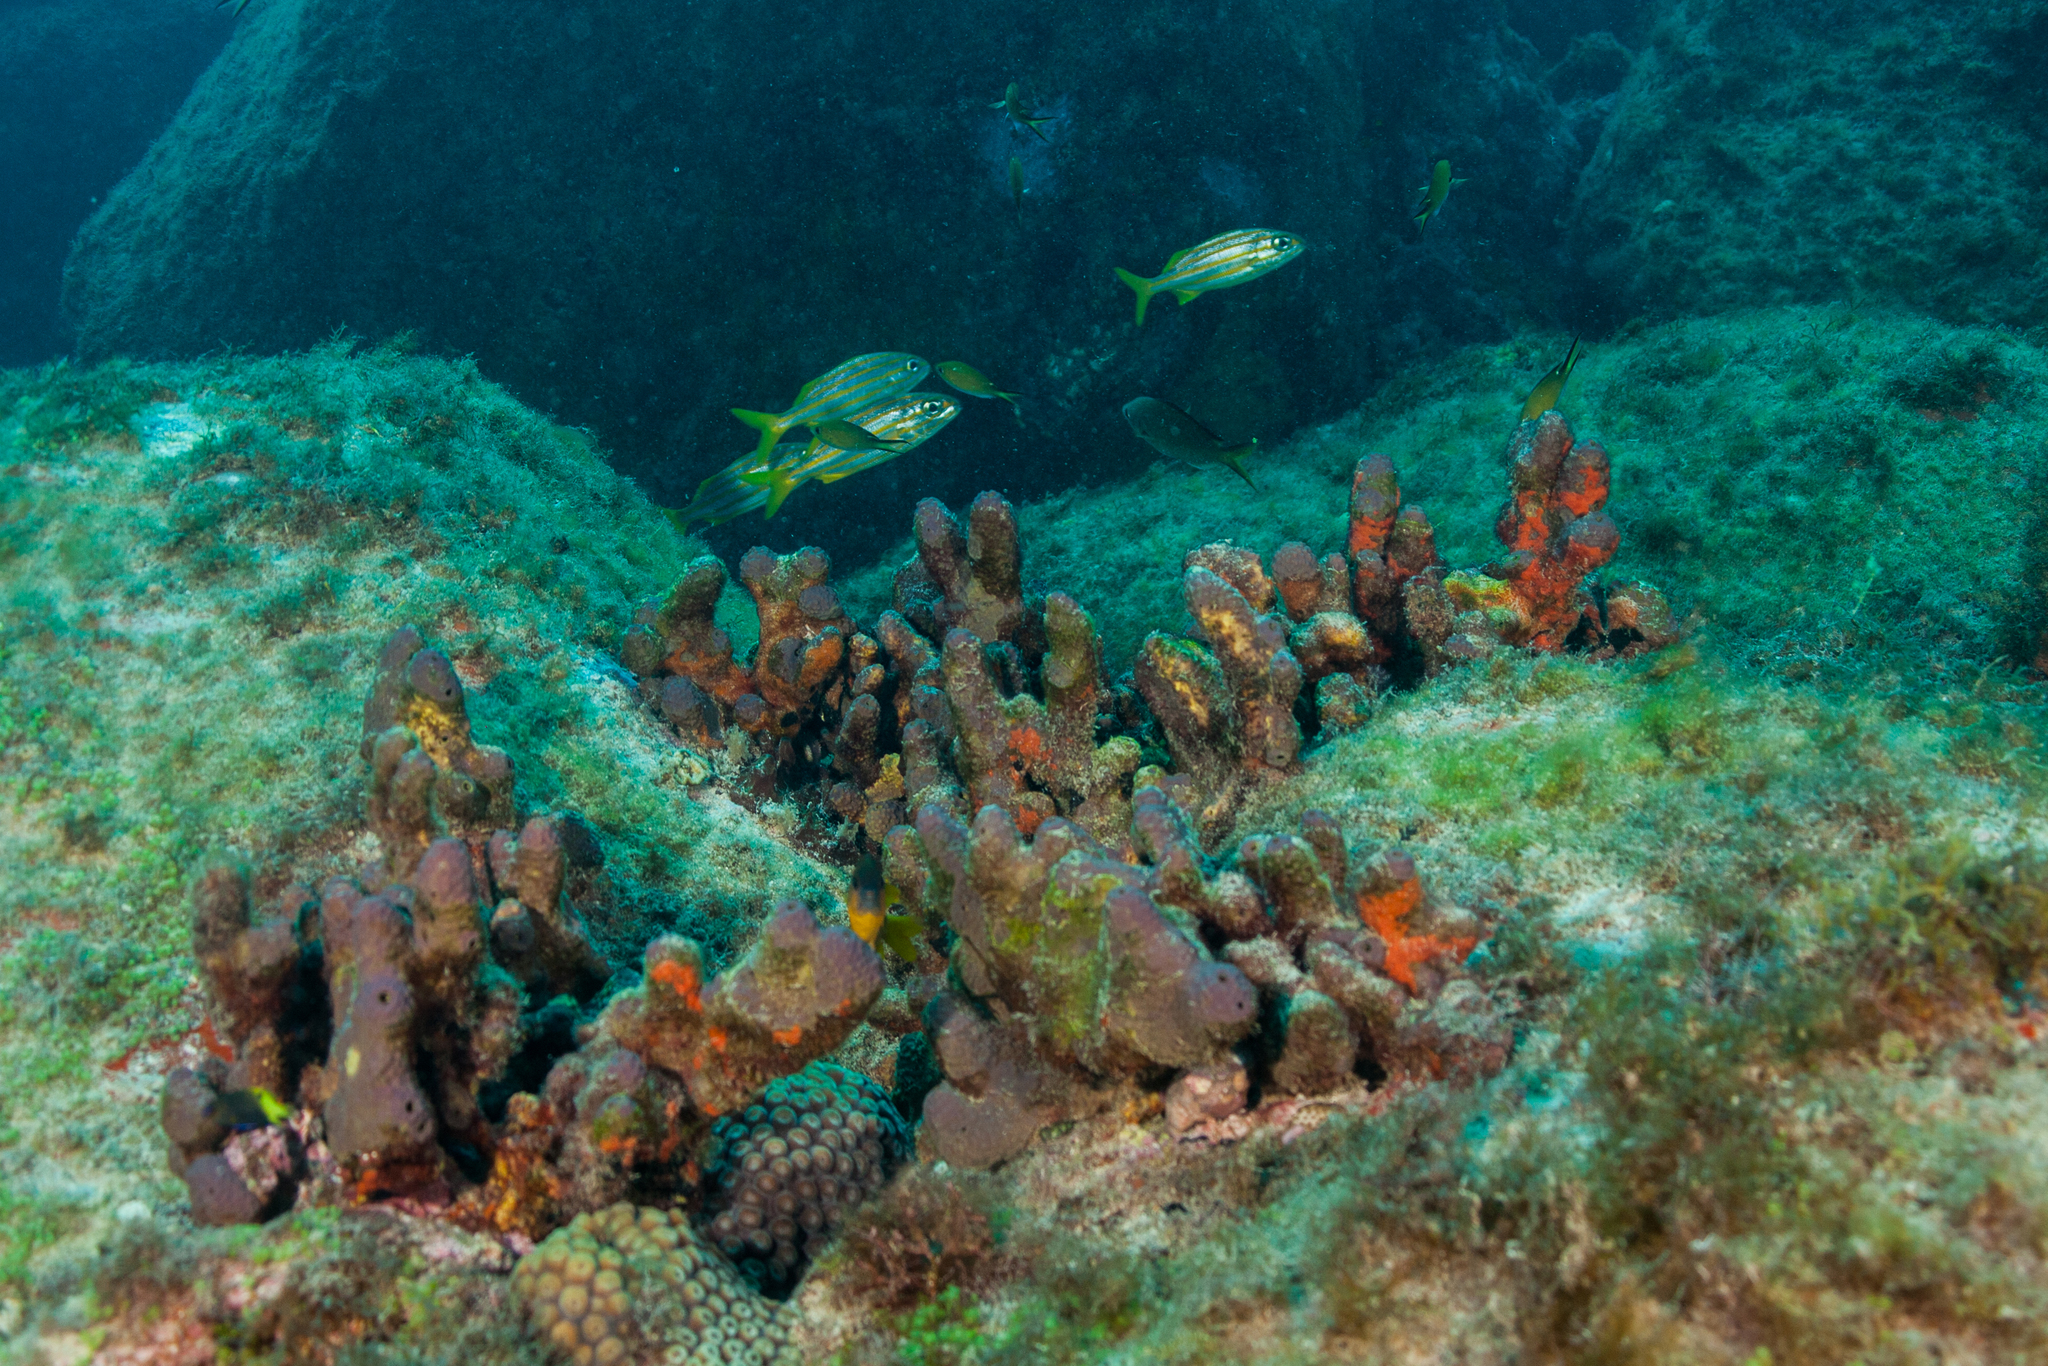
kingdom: Animalia
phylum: Porifera
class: Demospongiae
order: Verongiida
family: Aplysinidae
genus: Aiolochroia
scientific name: Aiolochroia crassa
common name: Branching tube sponge
